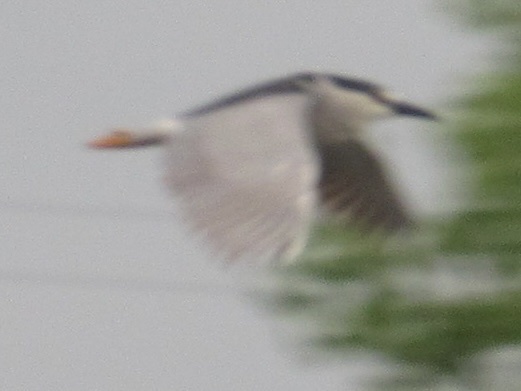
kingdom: Animalia
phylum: Chordata
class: Aves
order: Pelecaniformes
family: Ardeidae
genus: Nycticorax
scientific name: Nycticorax nycticorax
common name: Black-crowned night heron
